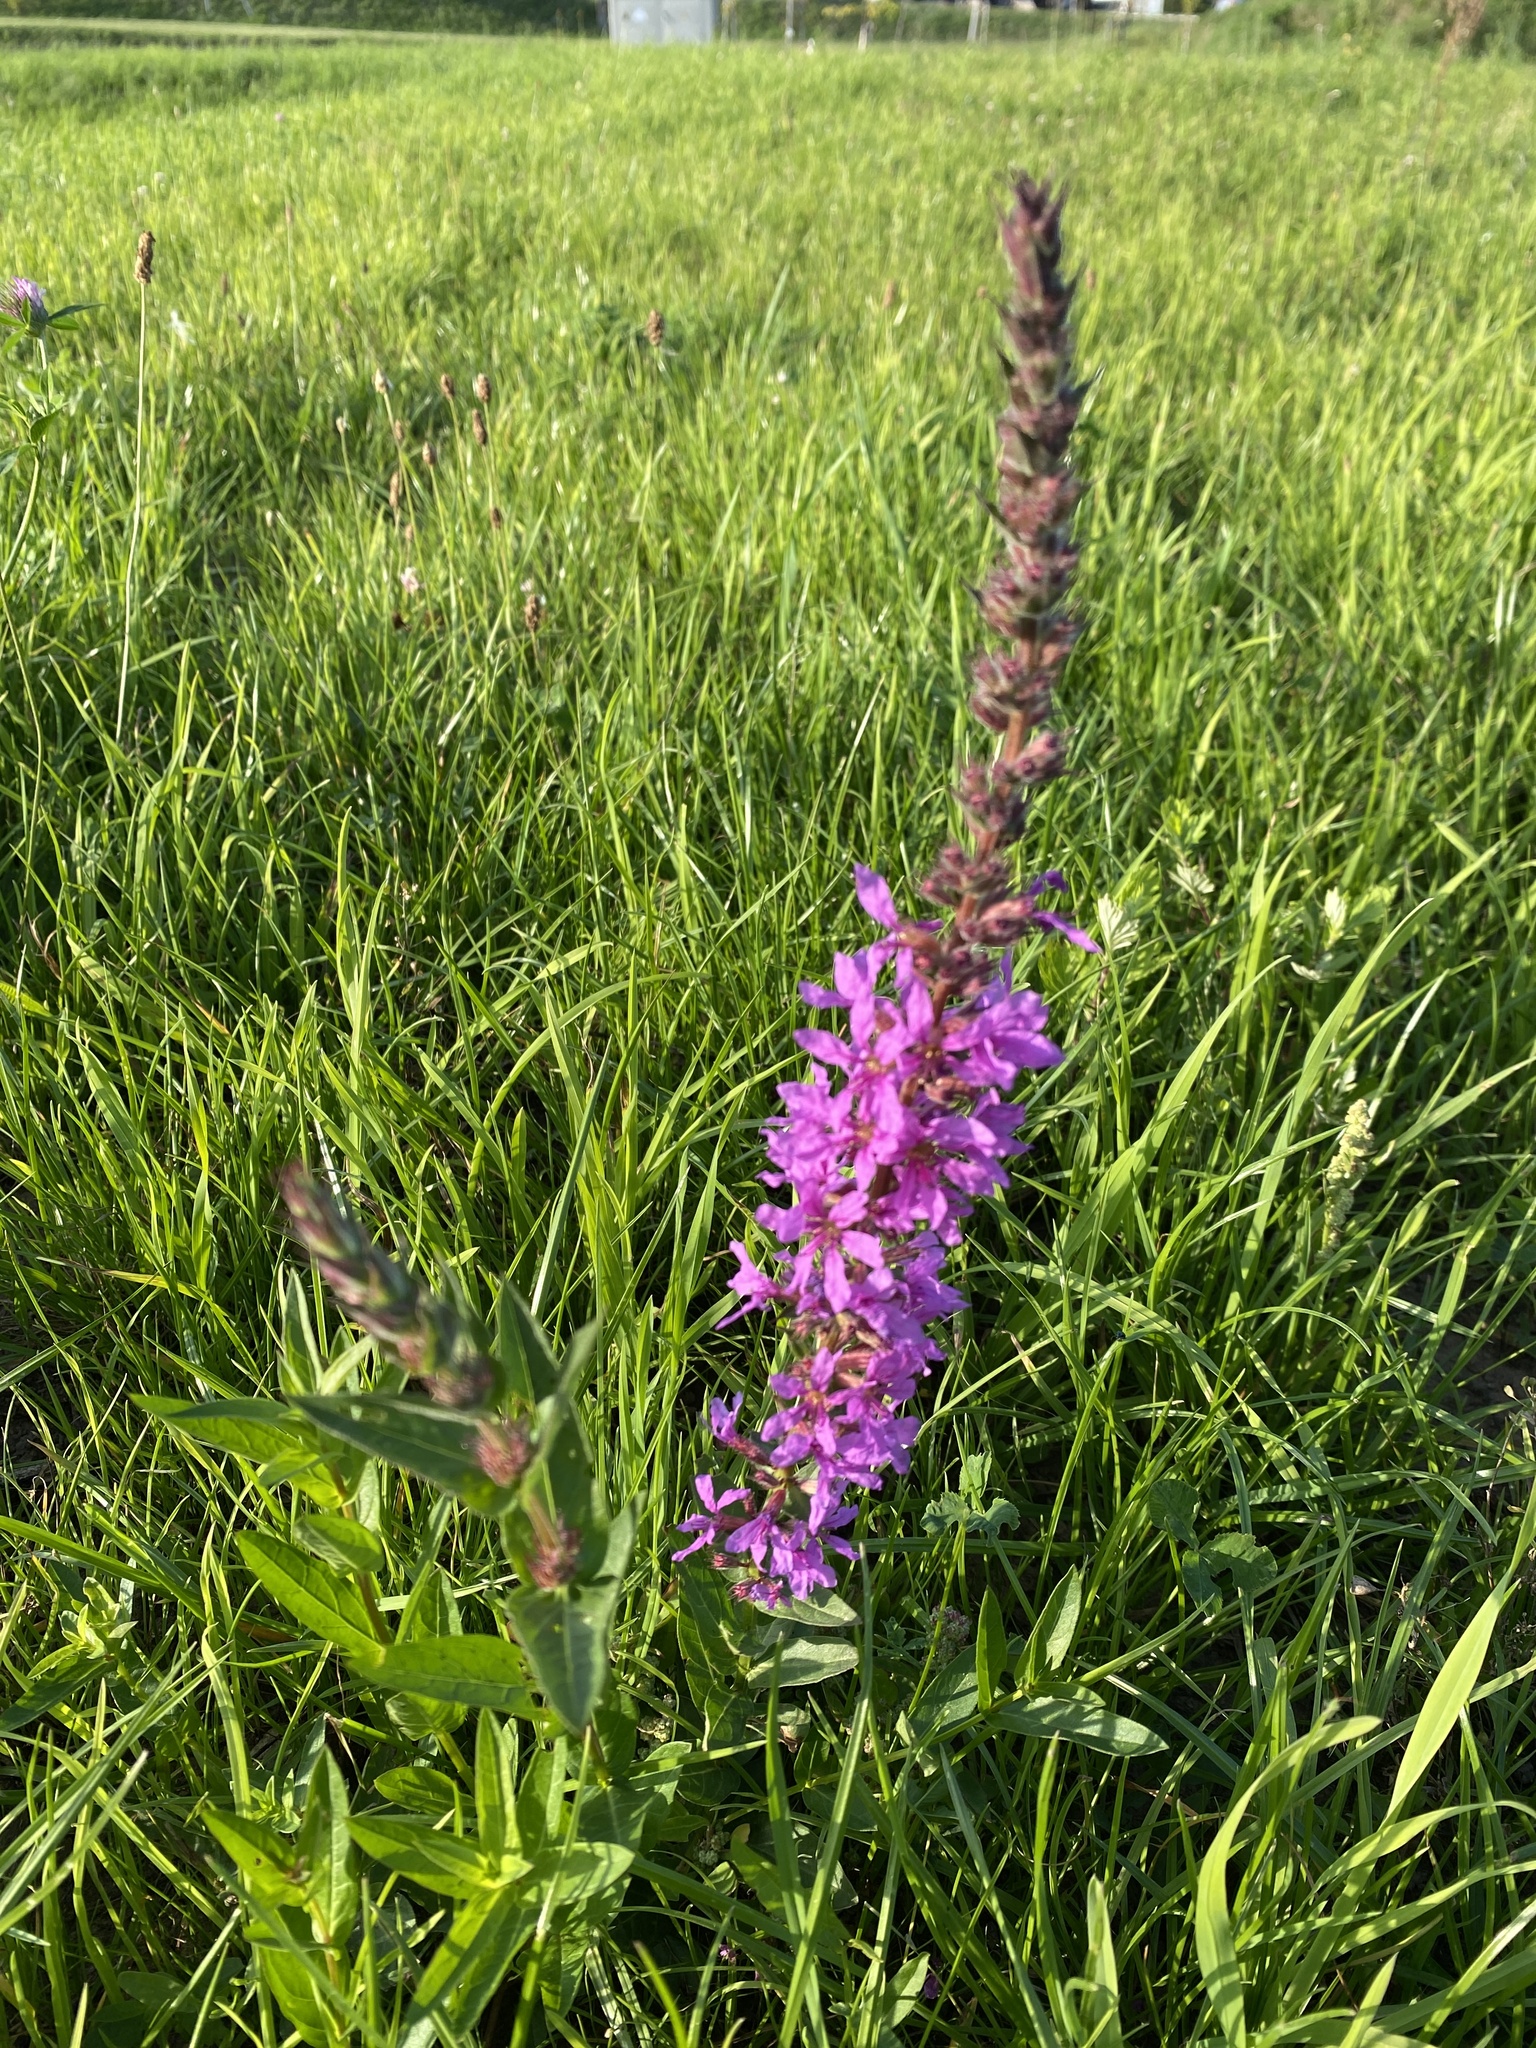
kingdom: Plantae
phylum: Tracheophyta
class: Magnoliopsida
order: Myrtales
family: Lythraceae
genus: Lythrum
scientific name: Lythrum salicaria
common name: Purple loosestrife
